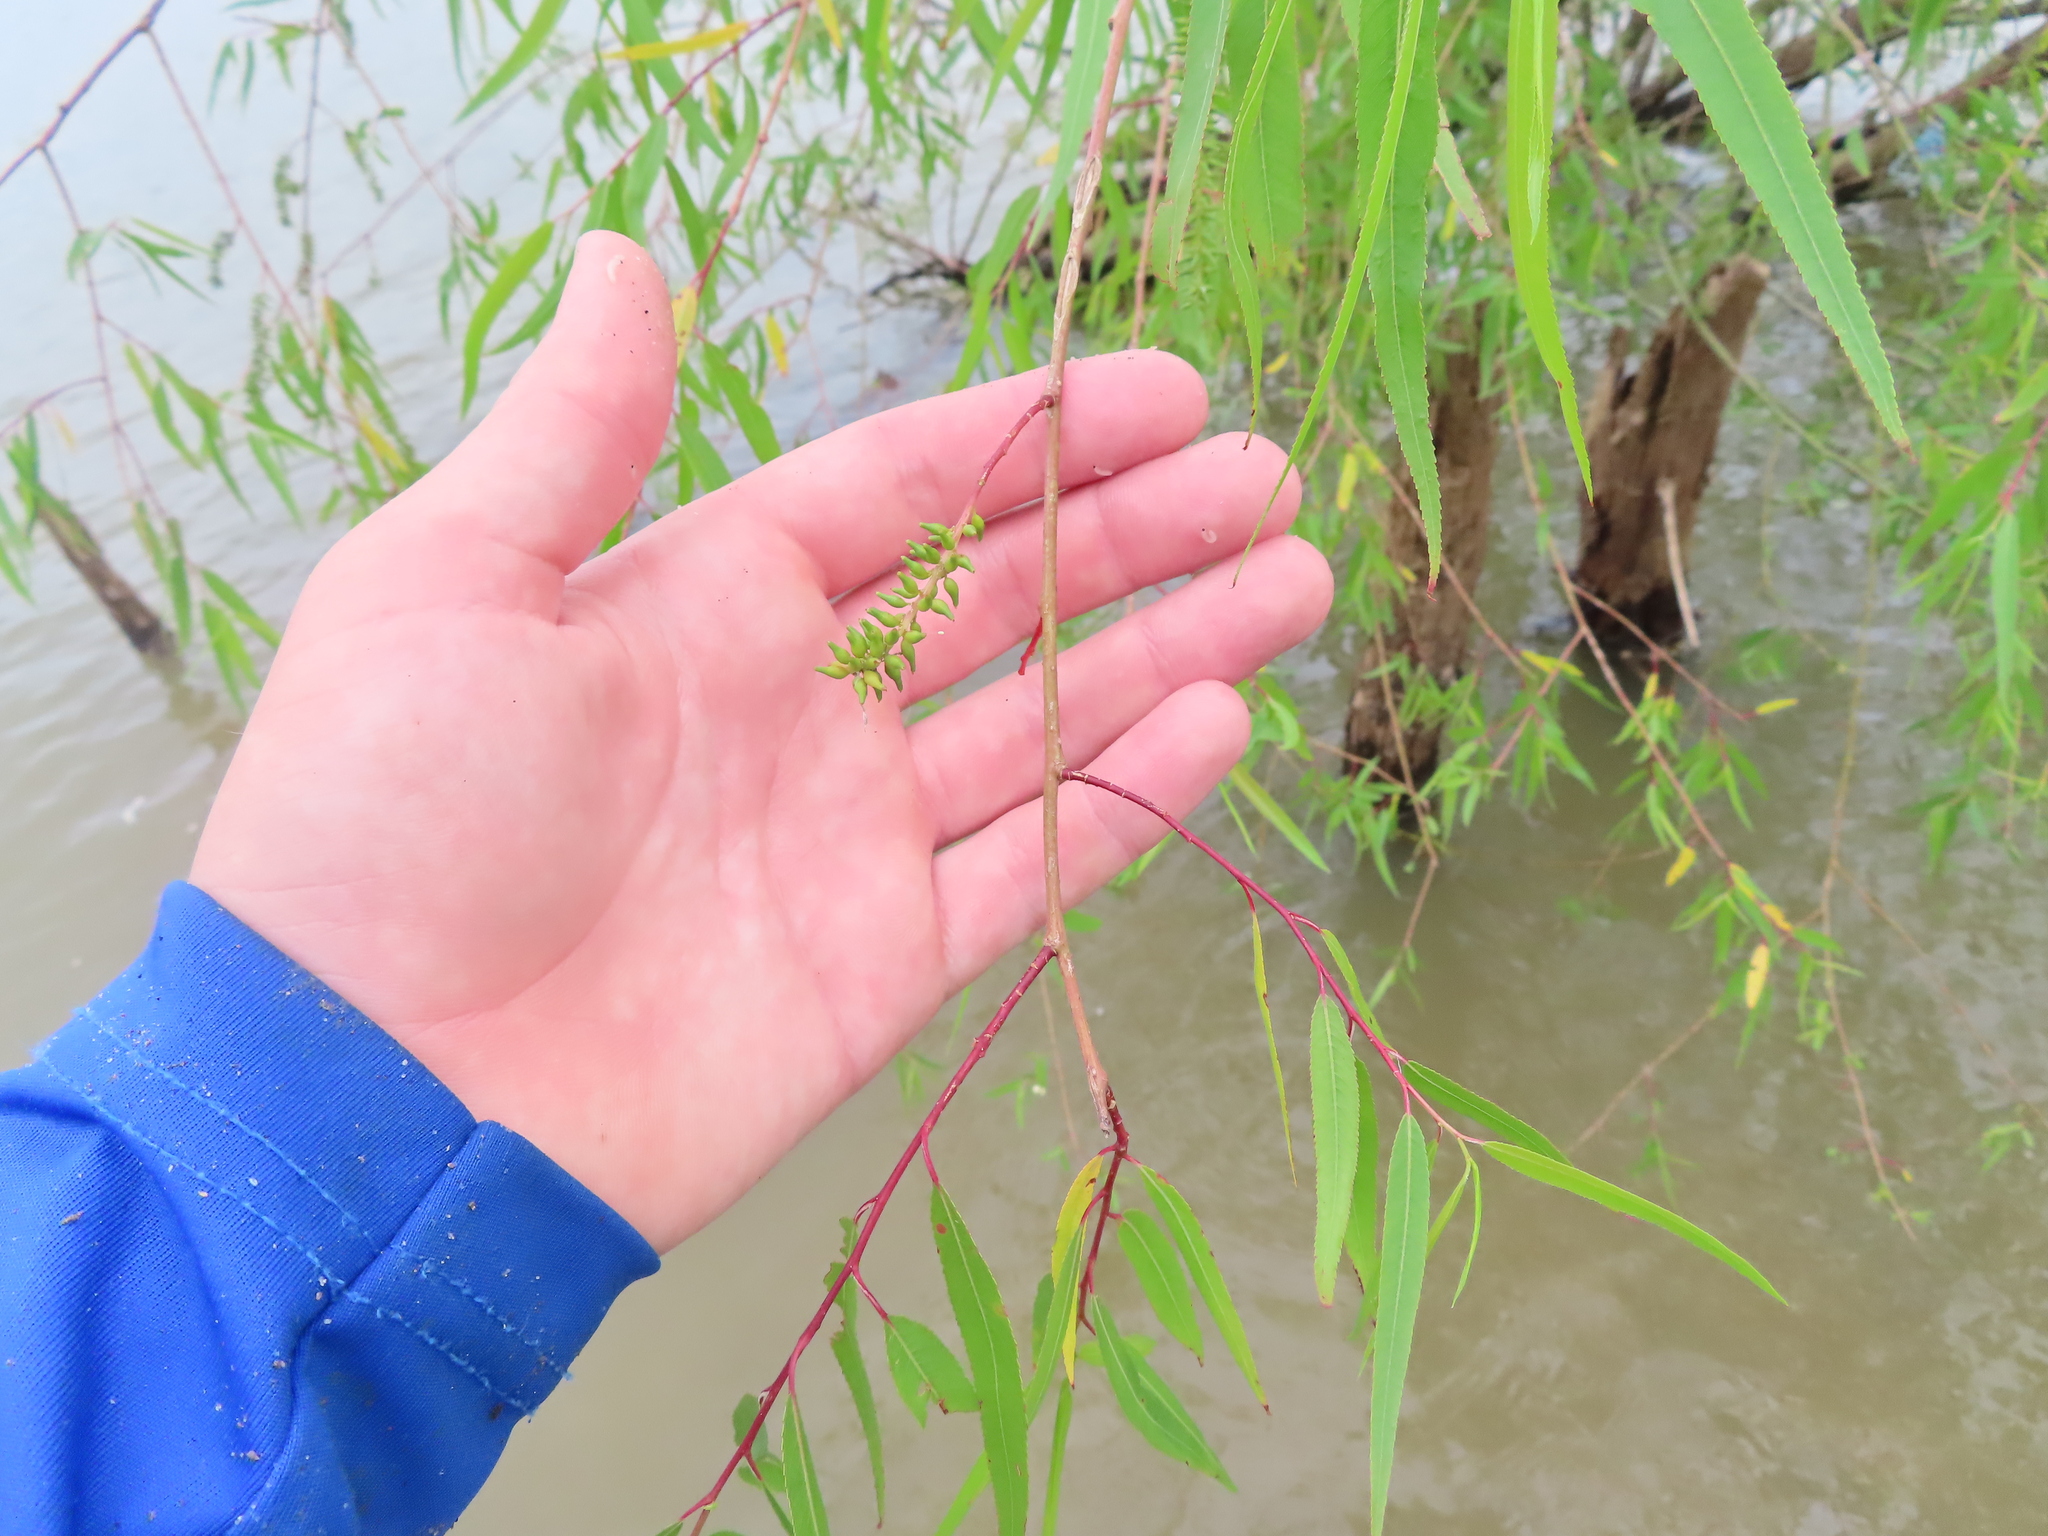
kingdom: Plantae
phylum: Tracheophyta
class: Magnoliopsida
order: Malpighiales
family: Salicaceae
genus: Salix
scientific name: Salix nigra
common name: Black willow
